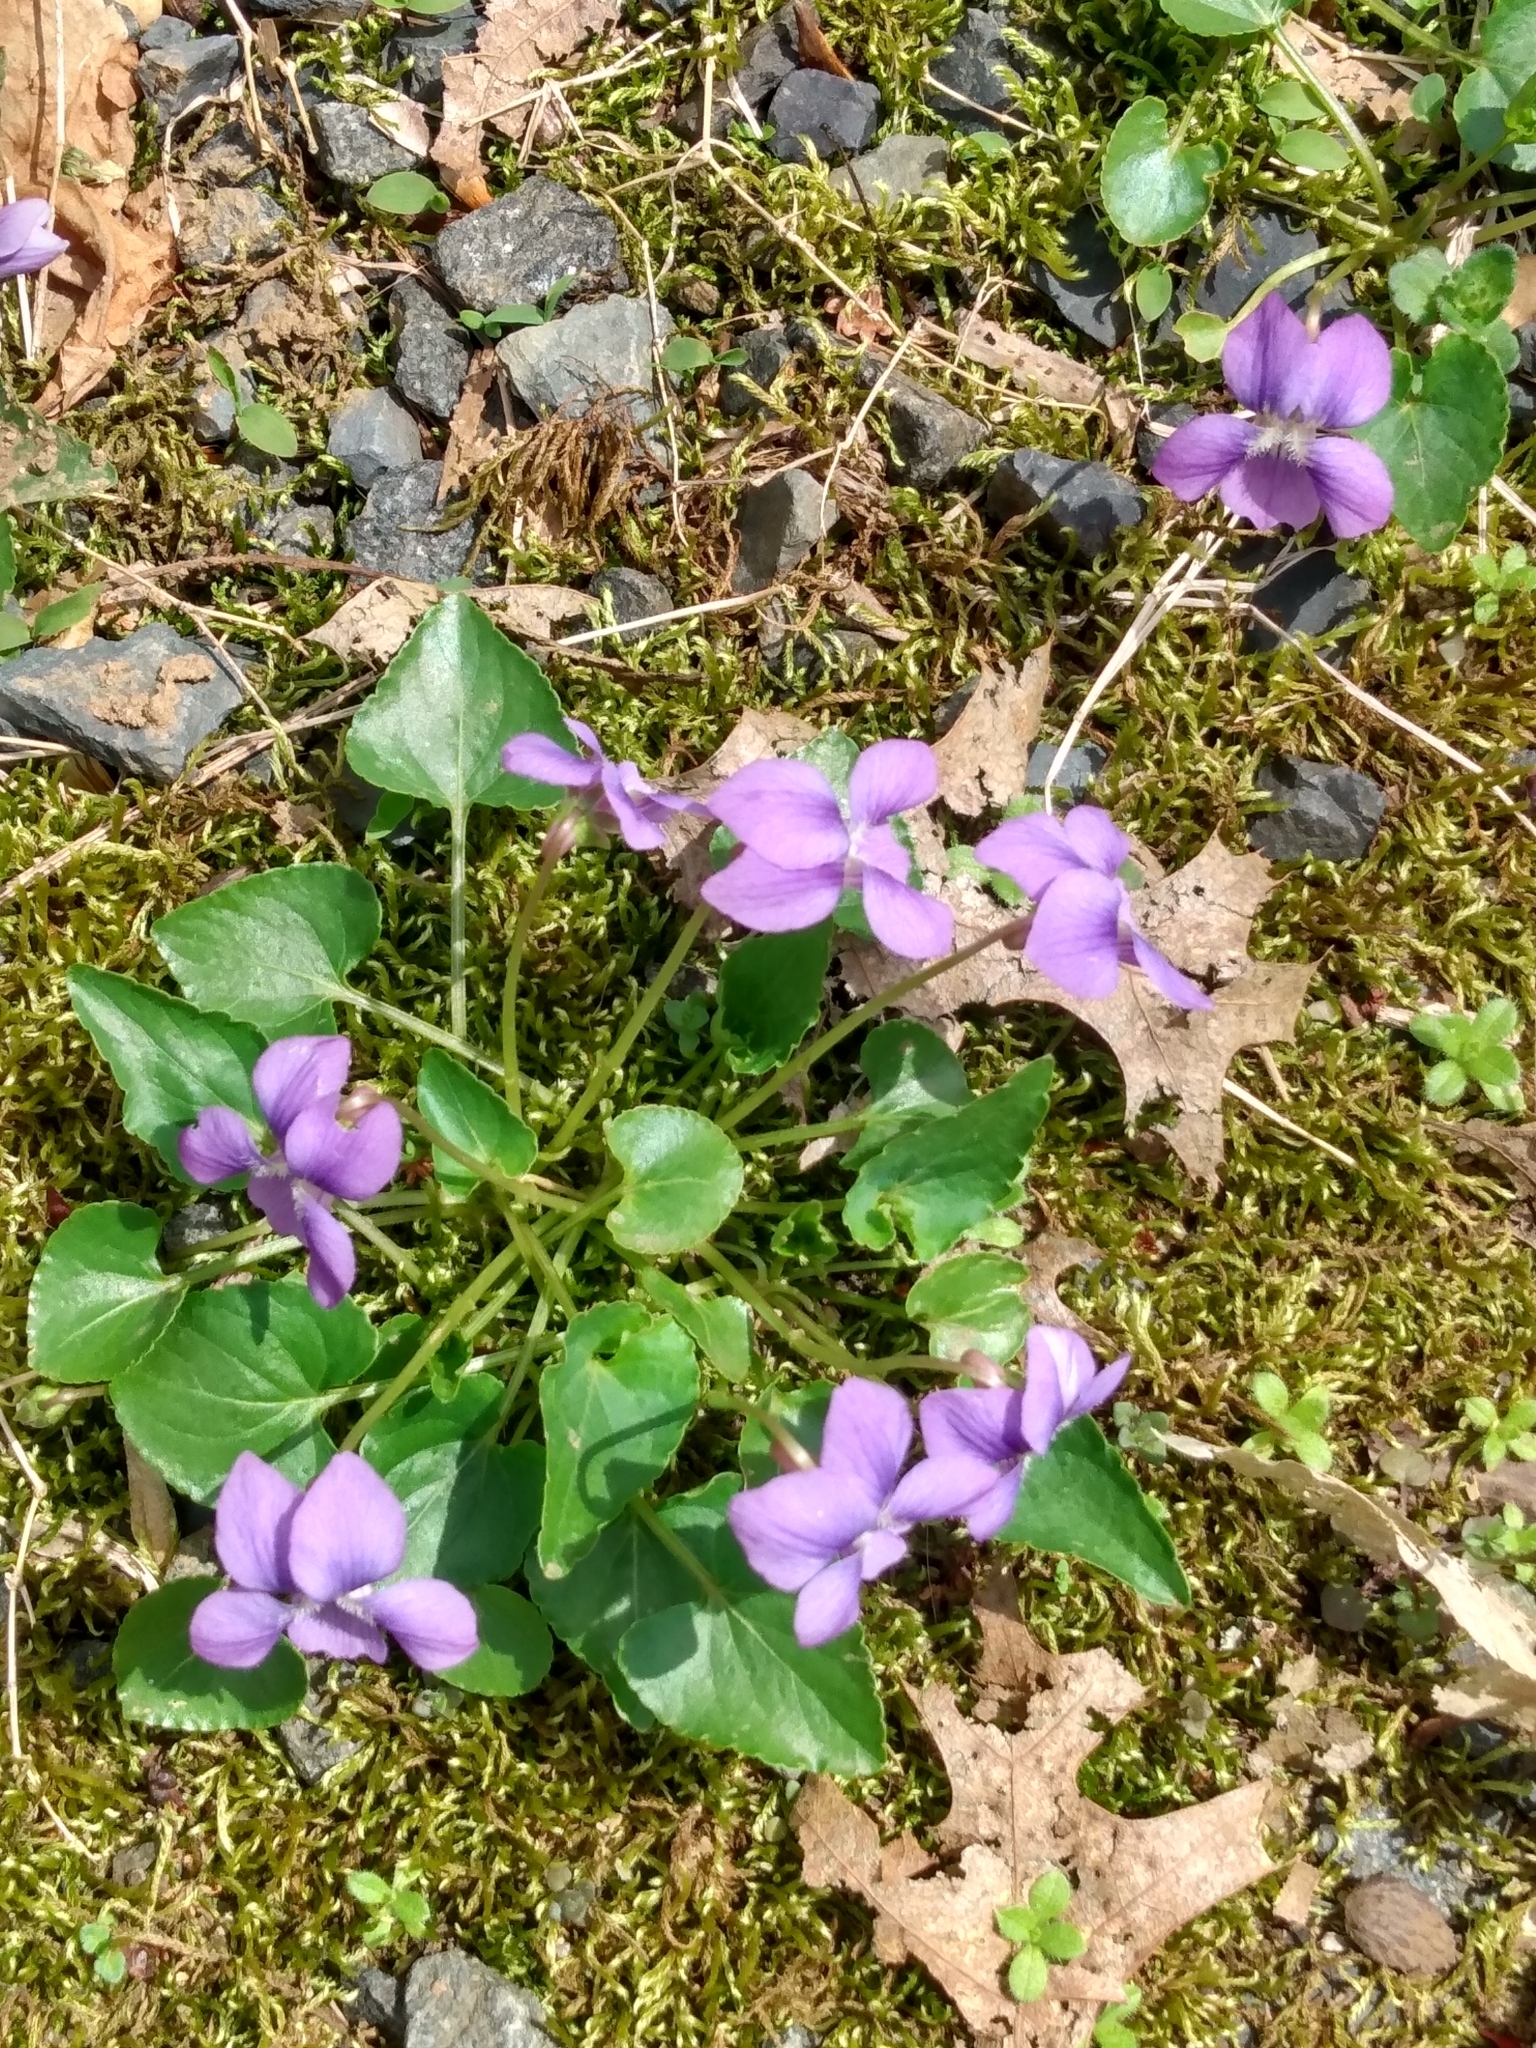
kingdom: Plantae
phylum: Tracheophyta
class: Magnoliopsida
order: Malpighiales
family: Violaceae
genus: Viola
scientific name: Viola sororia
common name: Dooryard violet
